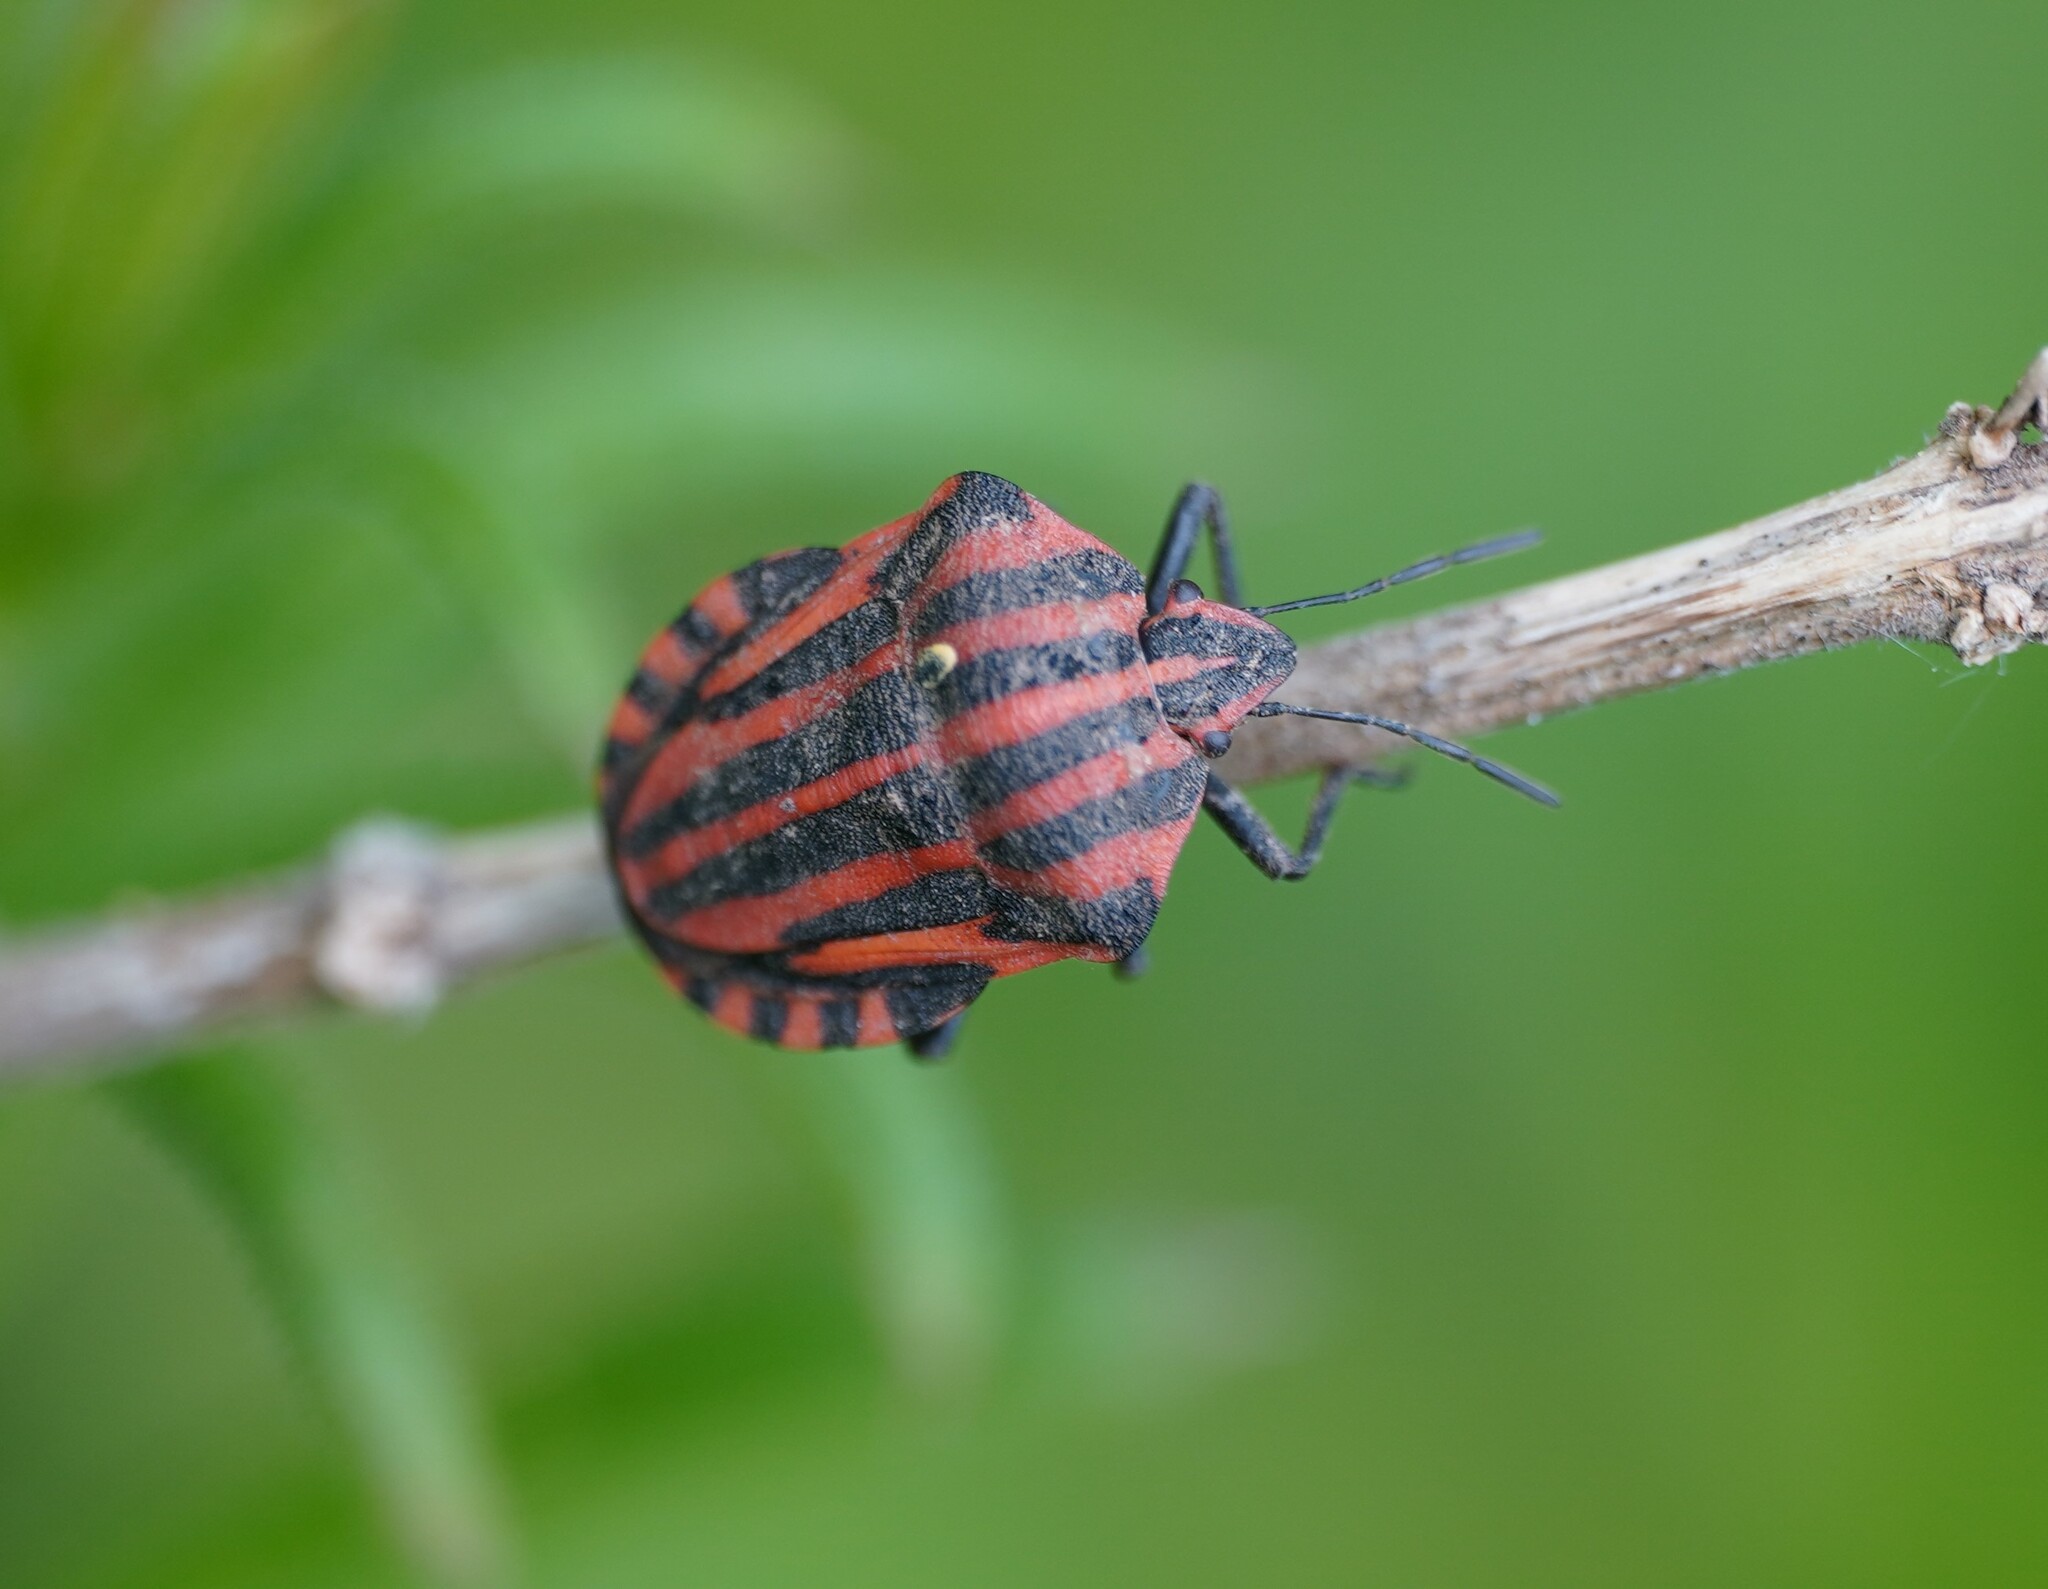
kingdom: Animalia
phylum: Arthropoda
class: Insecta
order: Hemiptera
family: Pentatomidae
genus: Graphosoma
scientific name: Graphosoma italicum
